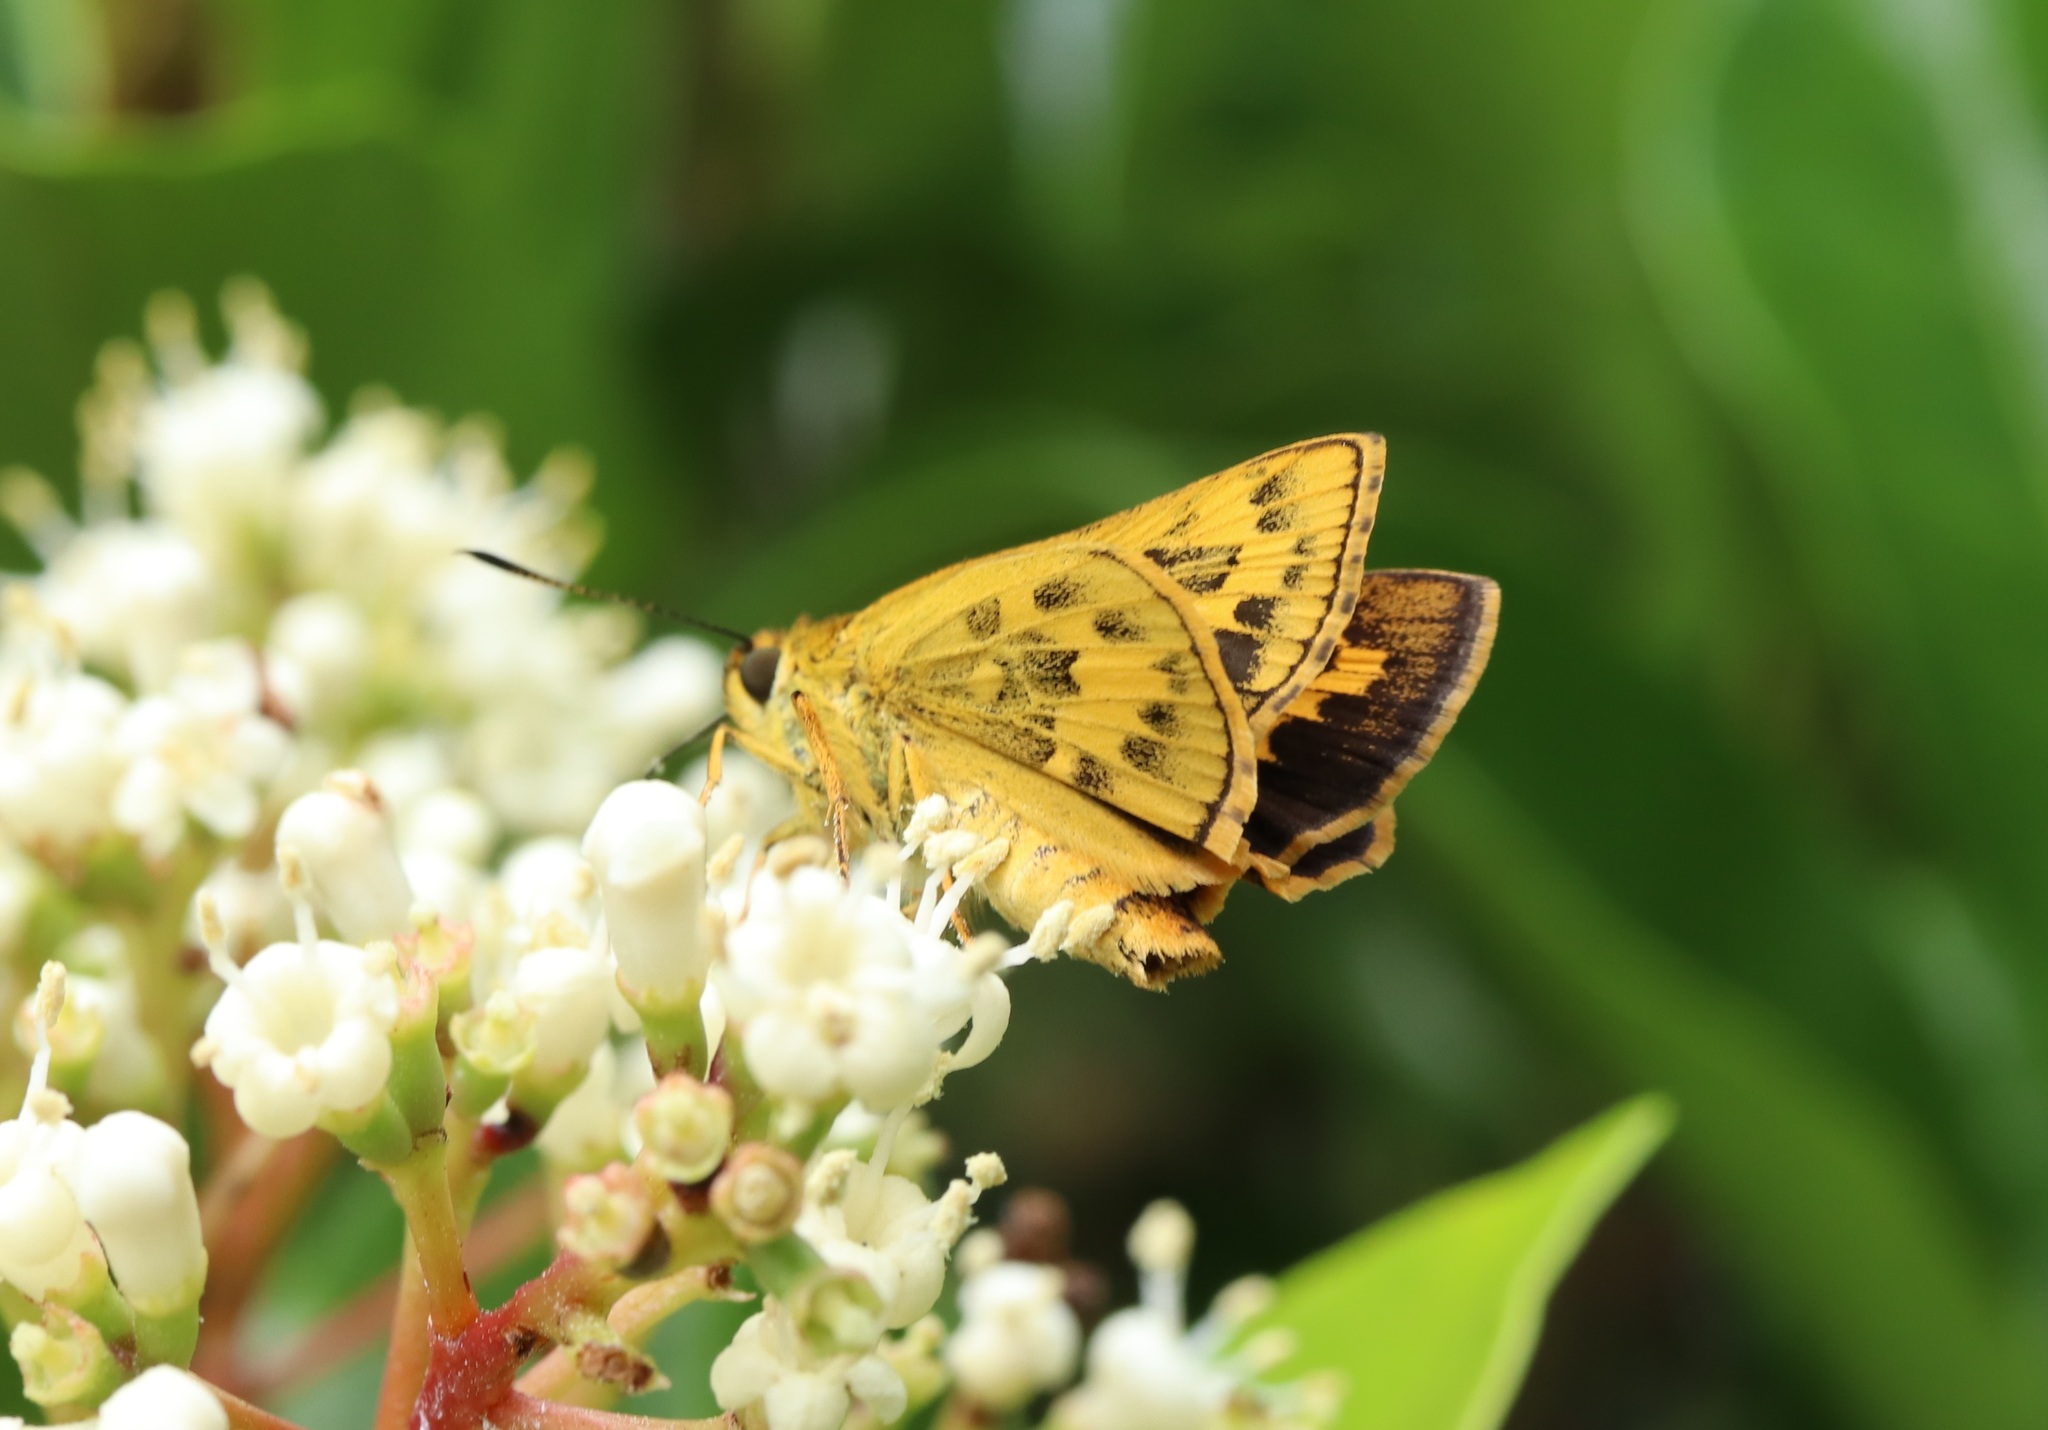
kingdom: Animalia
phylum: Arthropoda
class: Insecta
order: Lepidoptera
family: Hesperiidae
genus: Potanthus
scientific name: Potanthus flava
